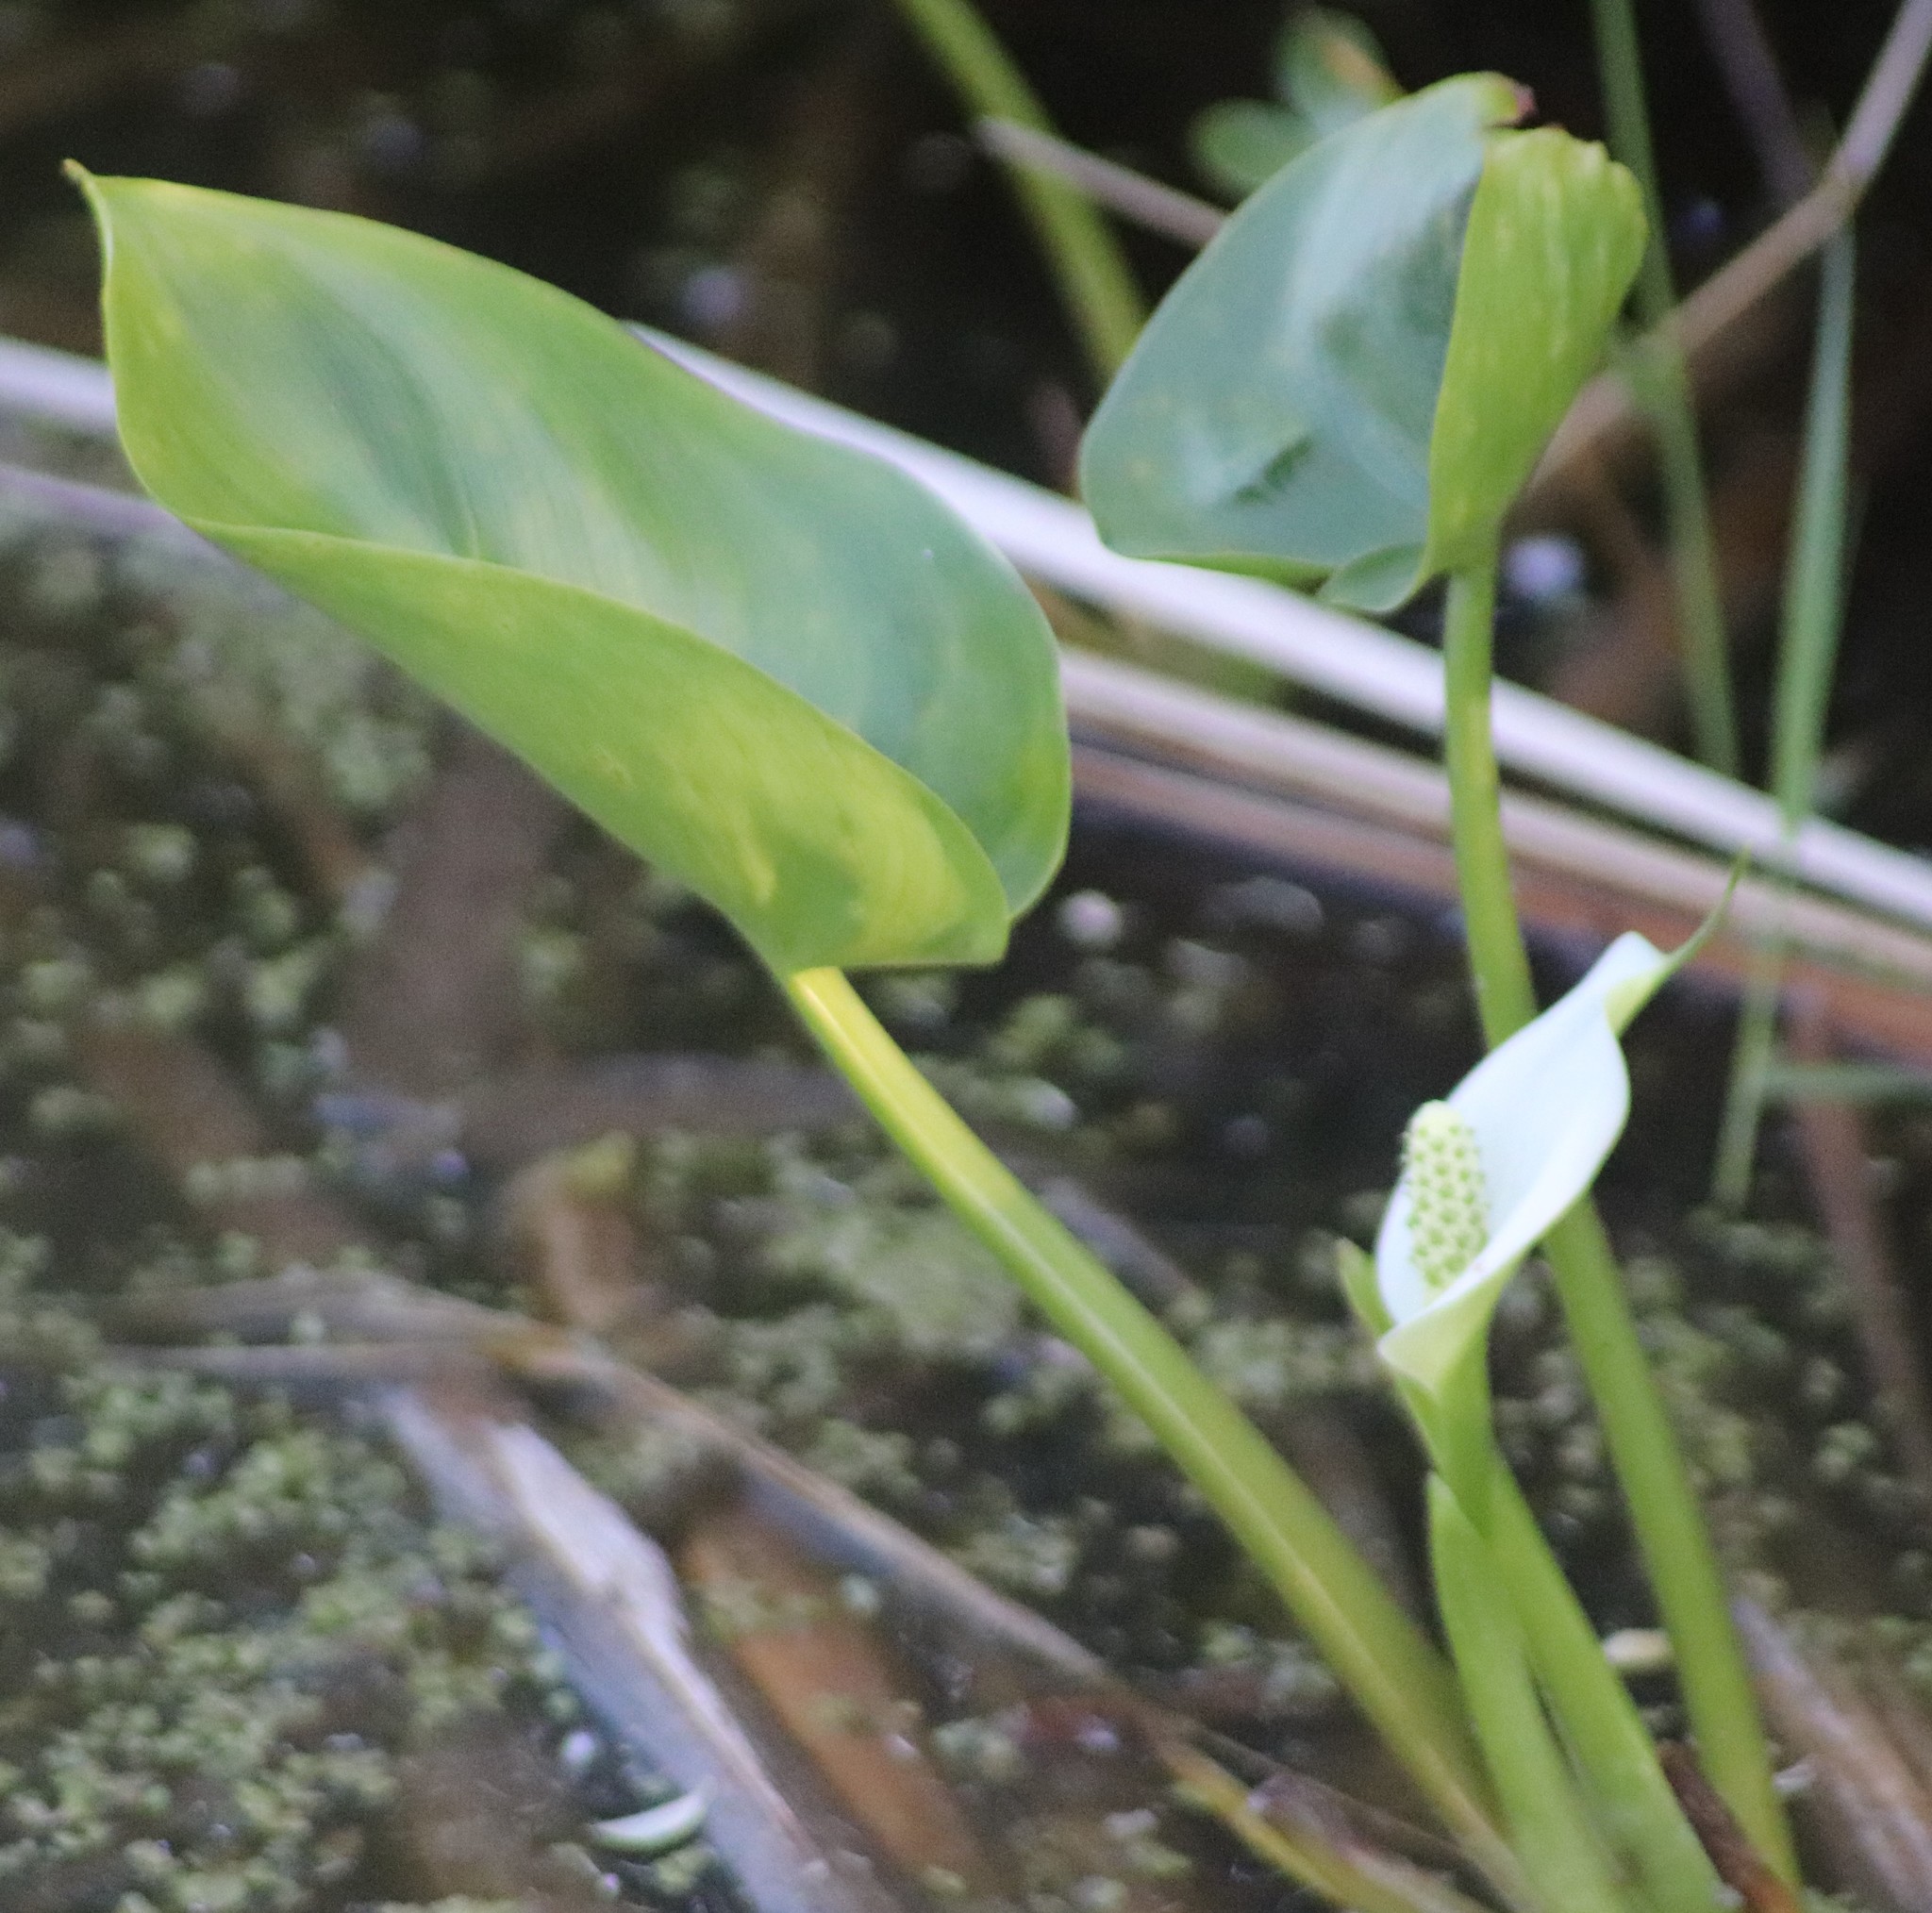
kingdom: Plantae
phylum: Tracheophyta
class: Liliopsida
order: Alismatales
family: Araceae
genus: Calla
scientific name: Calla palustris
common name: Bog arum
